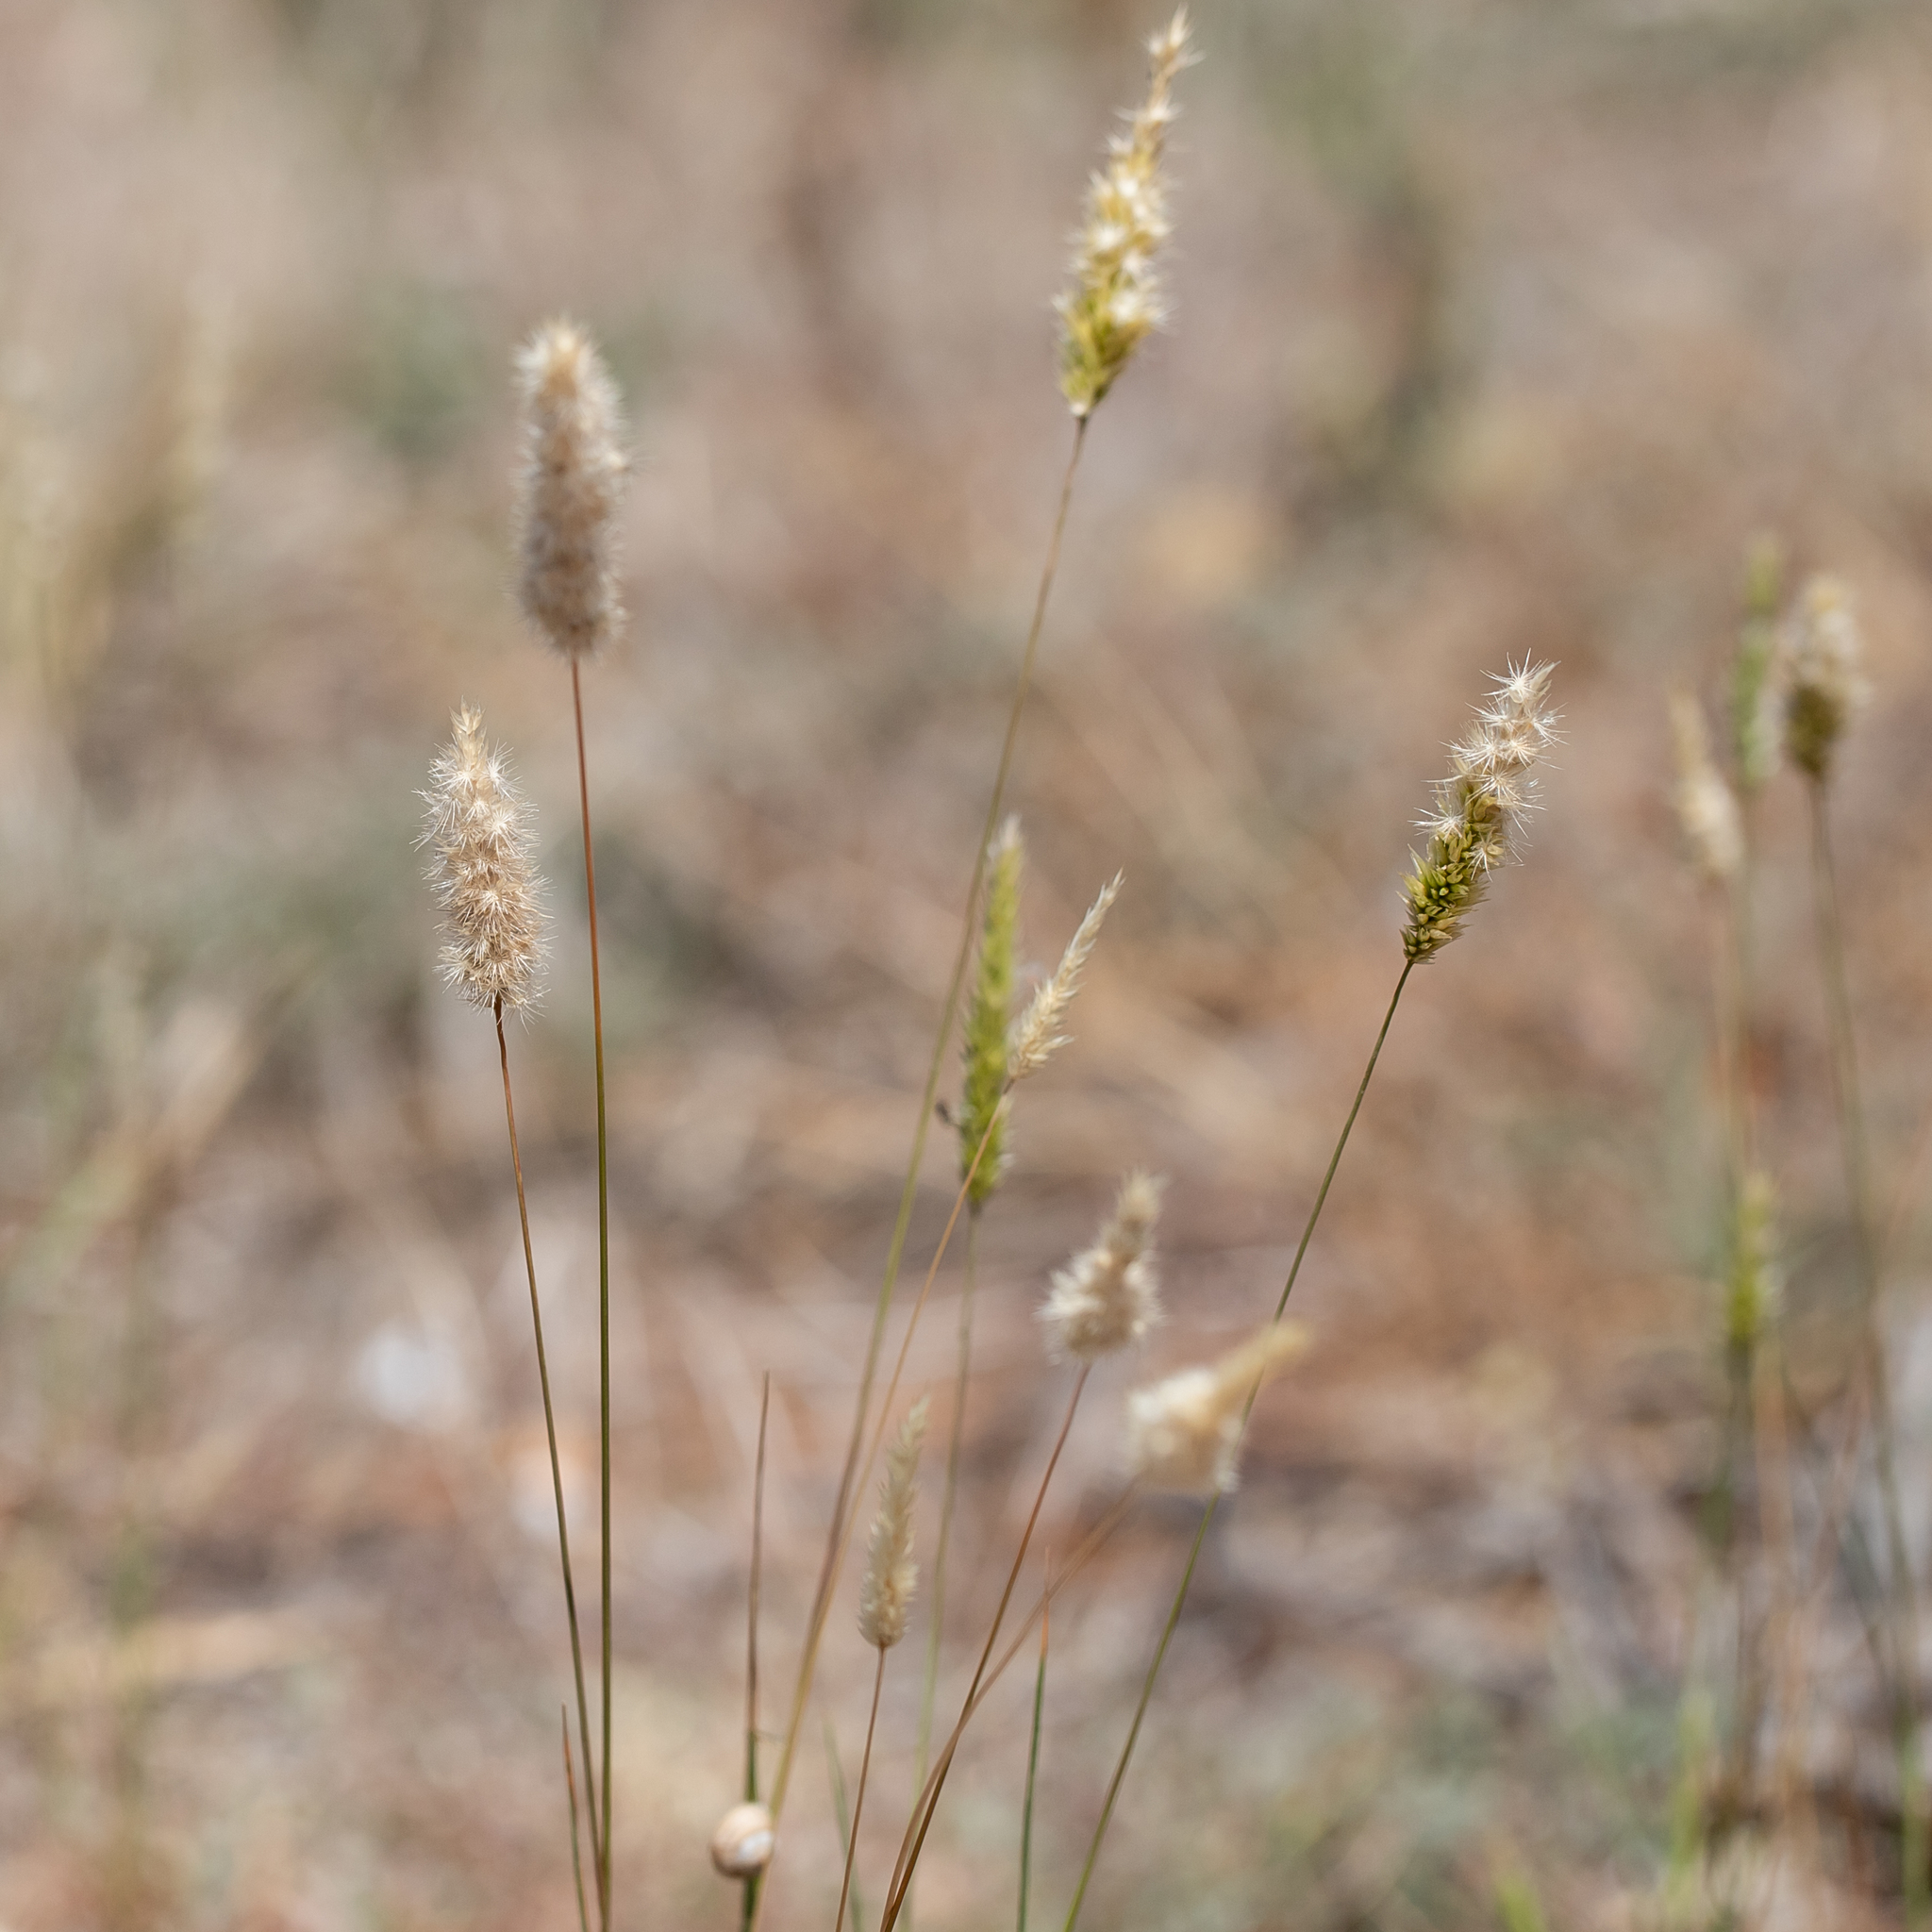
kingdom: Plantae
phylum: Tracheophyta
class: Liliopsida
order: Poales
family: Poaceae
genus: Enneapogon
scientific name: Enneapogon nigricans
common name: Pappus grass
